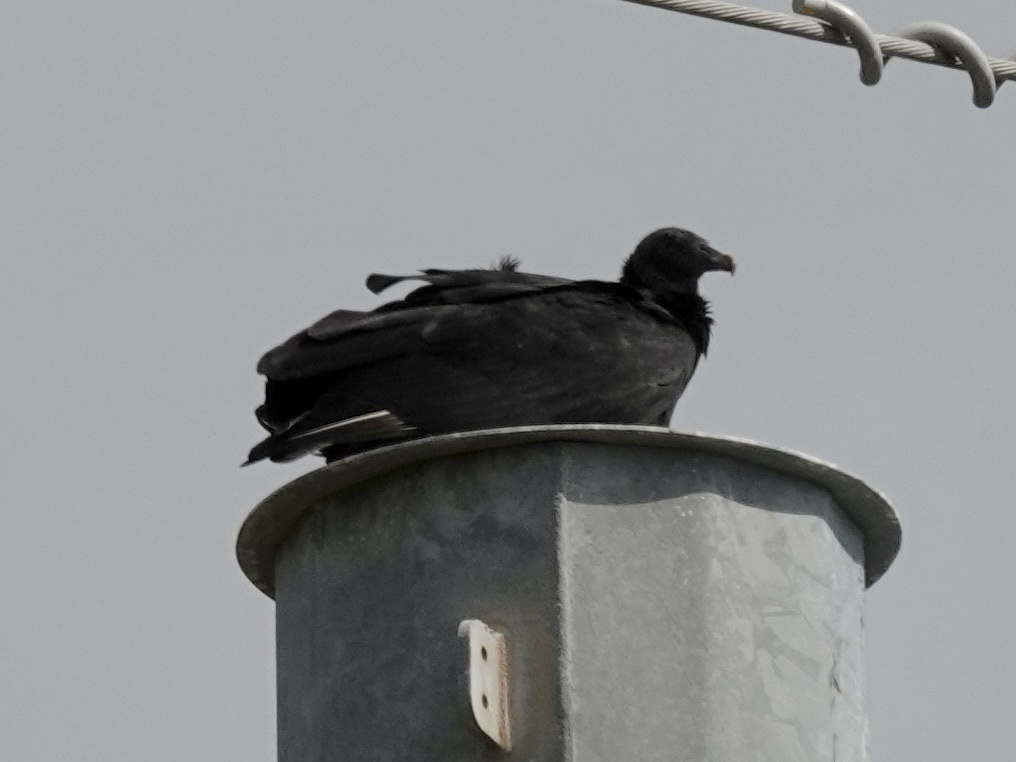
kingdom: Animalia
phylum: Chordata
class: Aves
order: Accipitriformes
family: Cathartidae
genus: Coragyps
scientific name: Coragyps atratus
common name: Black vulture
